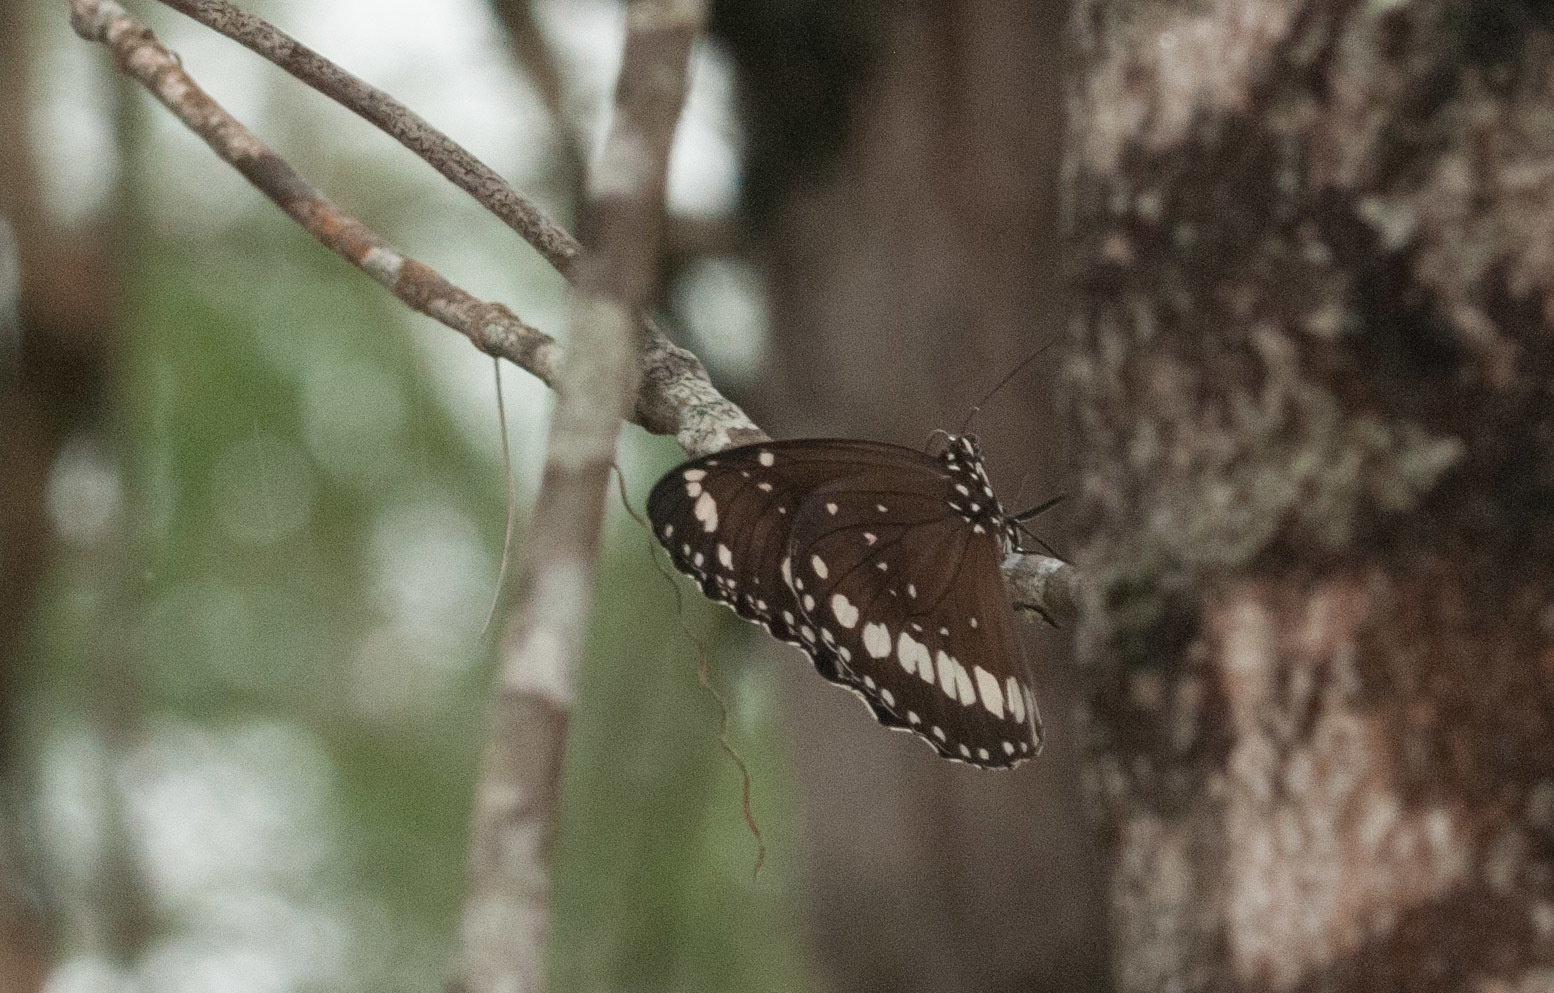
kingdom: Animalia
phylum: Arthropoda
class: Insecta
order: Lepidoptera
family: Nymphalidae
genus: Euploea
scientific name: Euploea core
